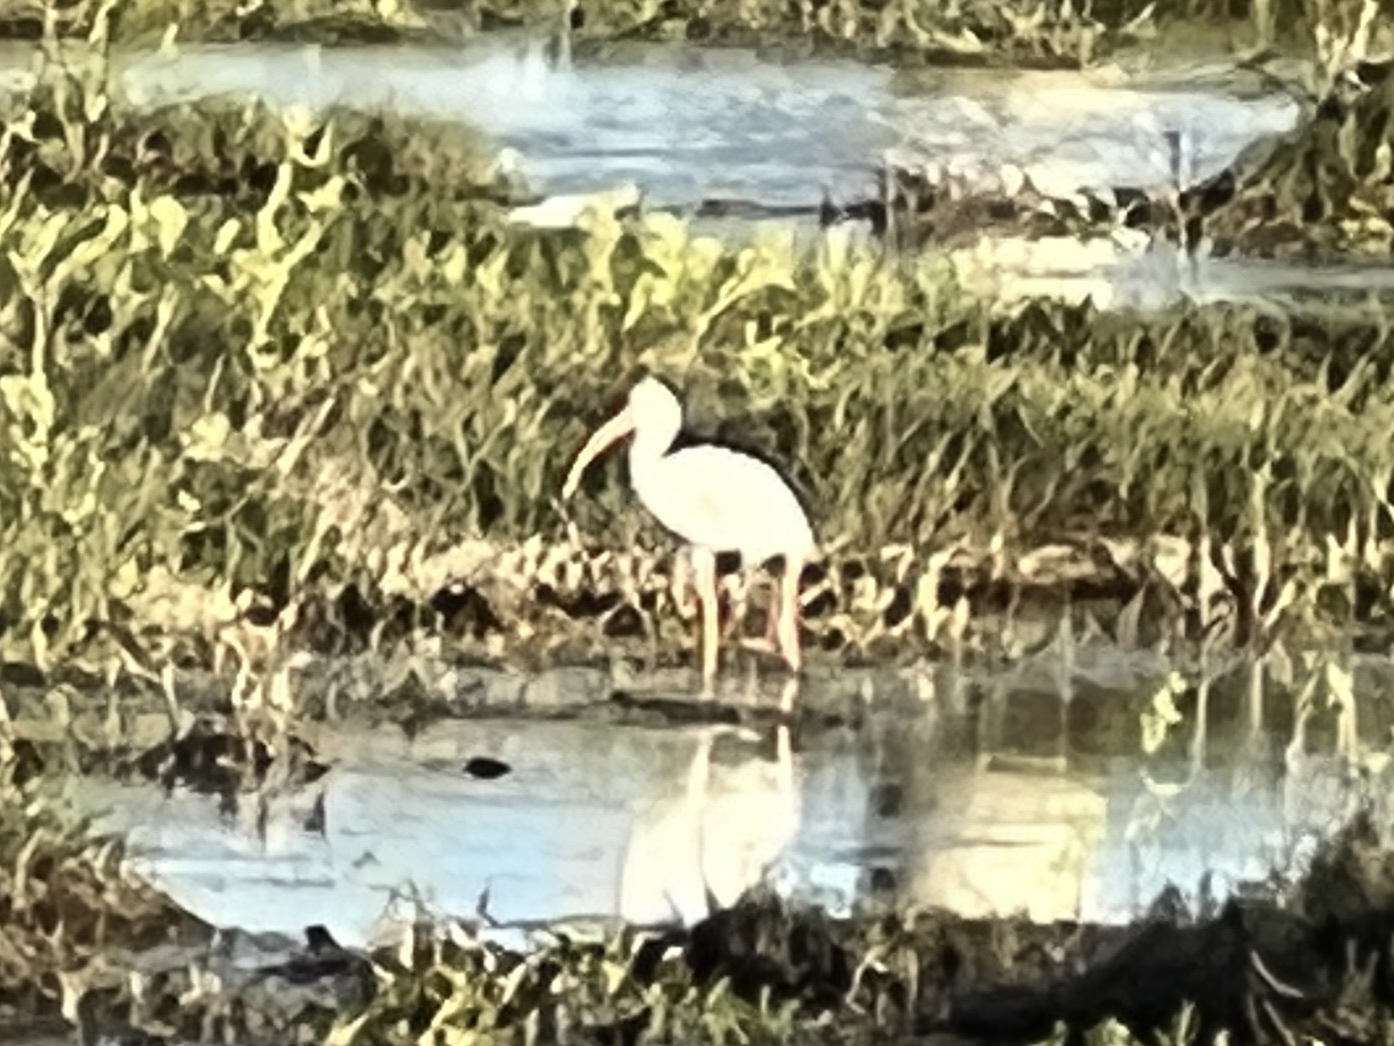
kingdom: Animalia
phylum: Chordata
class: Aves
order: Pelecaniformes
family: Threskiornithidae
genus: Eudocimus
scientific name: Eudocimus albus
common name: White ibis
